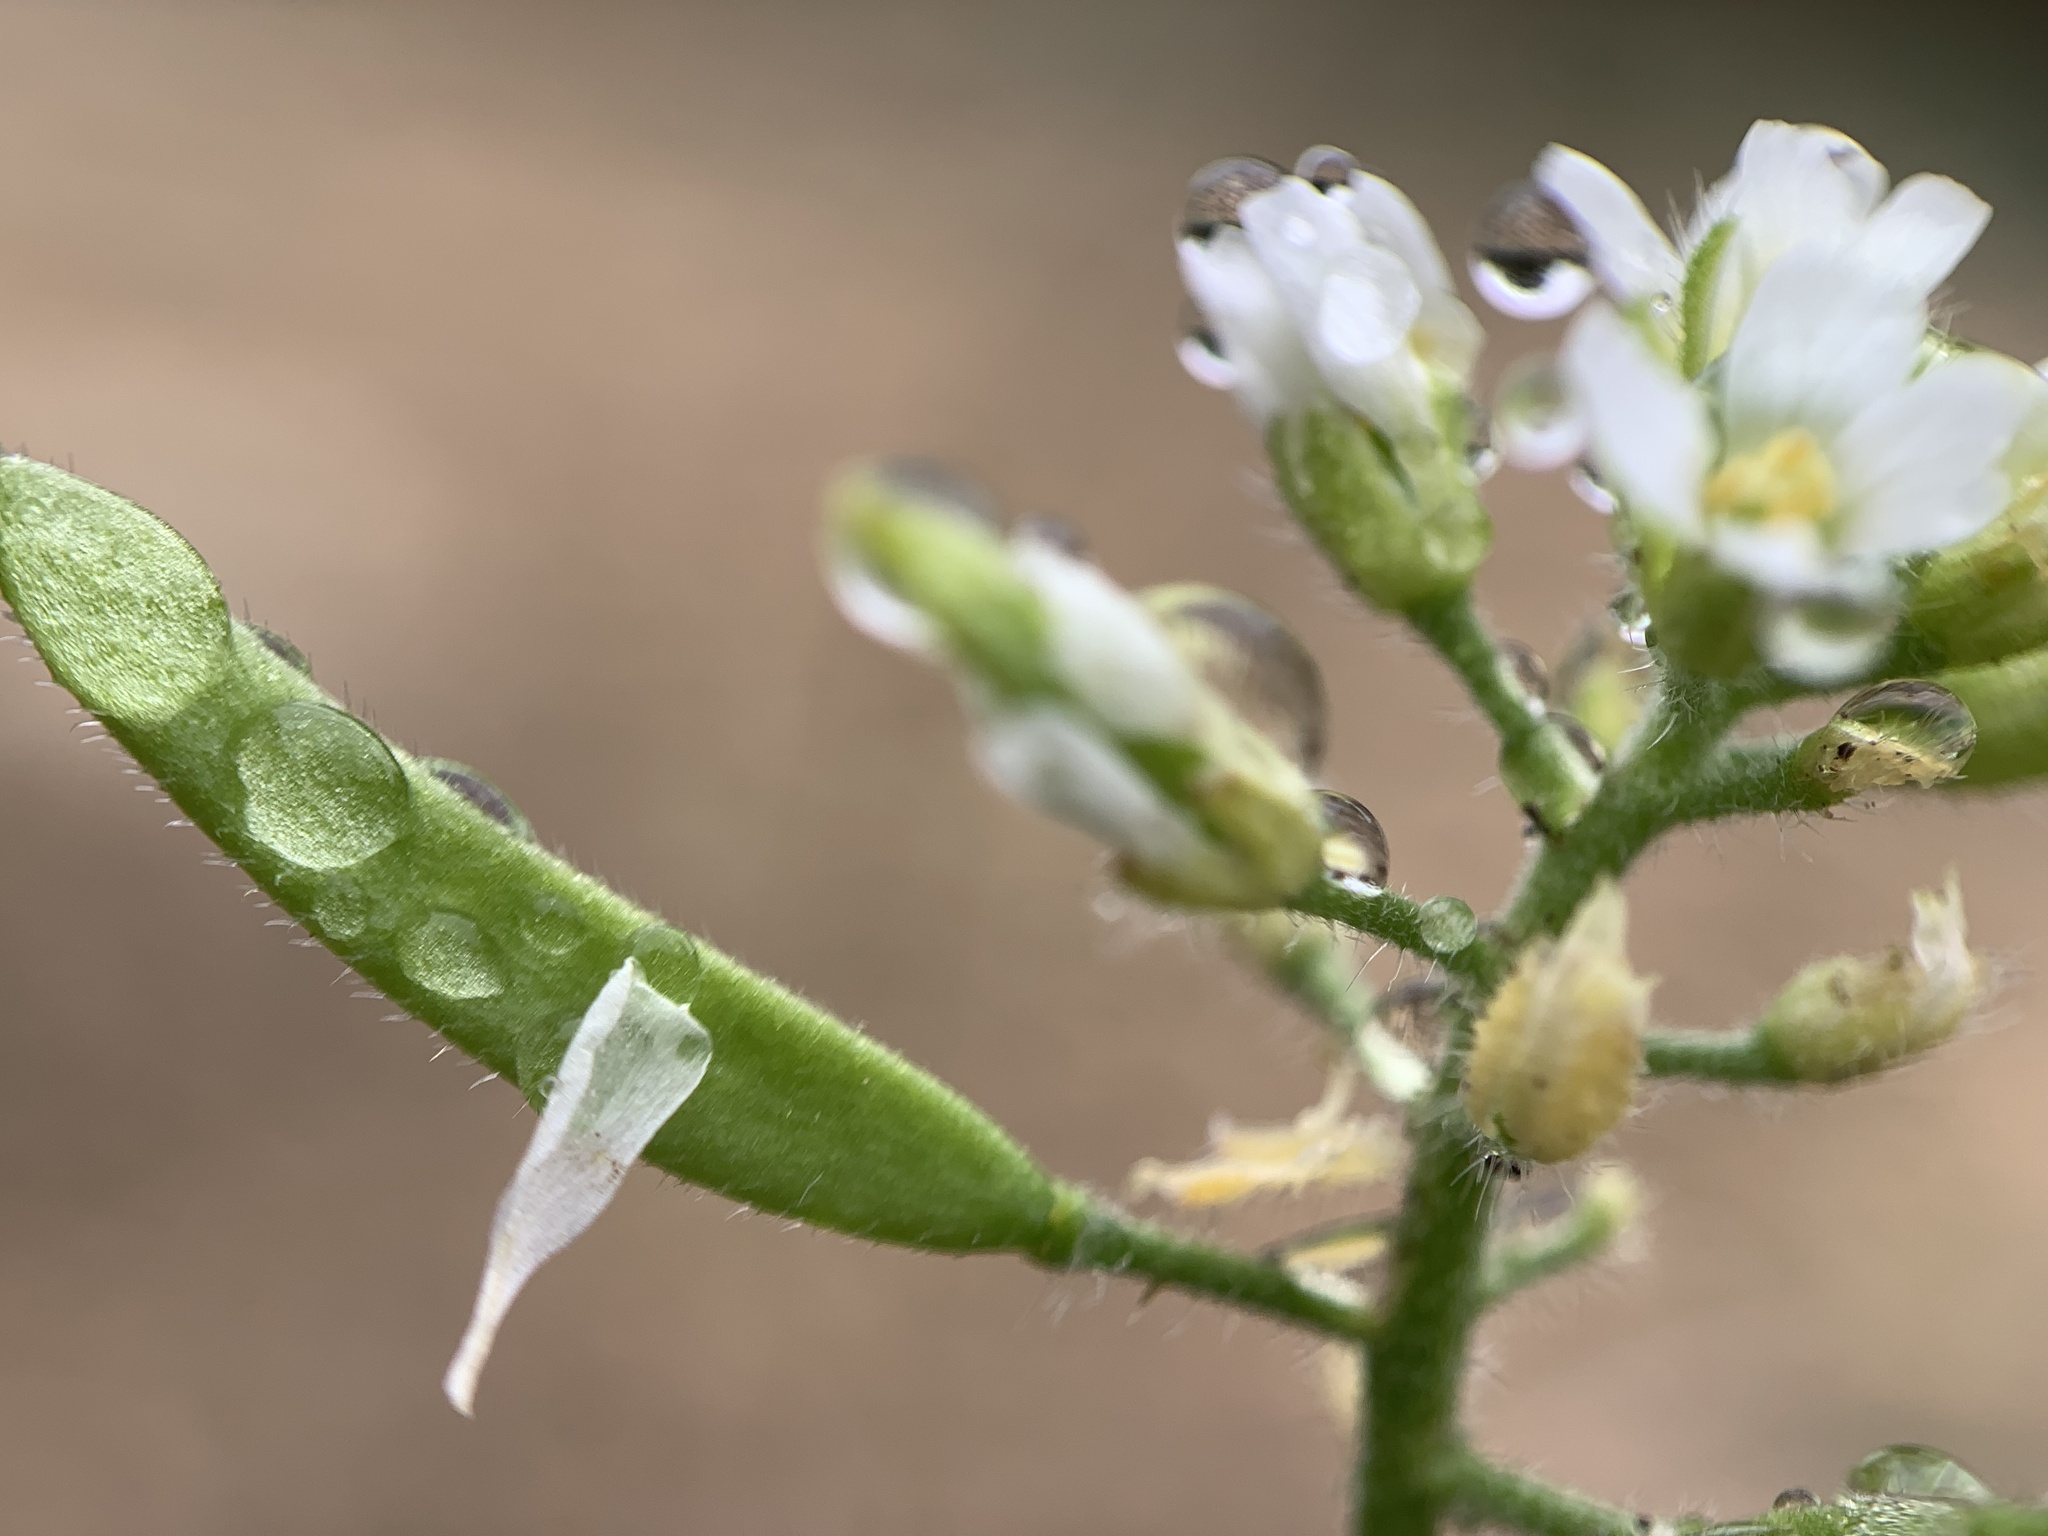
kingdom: Plantae
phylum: Tracheophyta
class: Magnoliopsida
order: Brassicales
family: Brassicaceae
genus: Tomostima
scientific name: Tomostima cuneifolia
